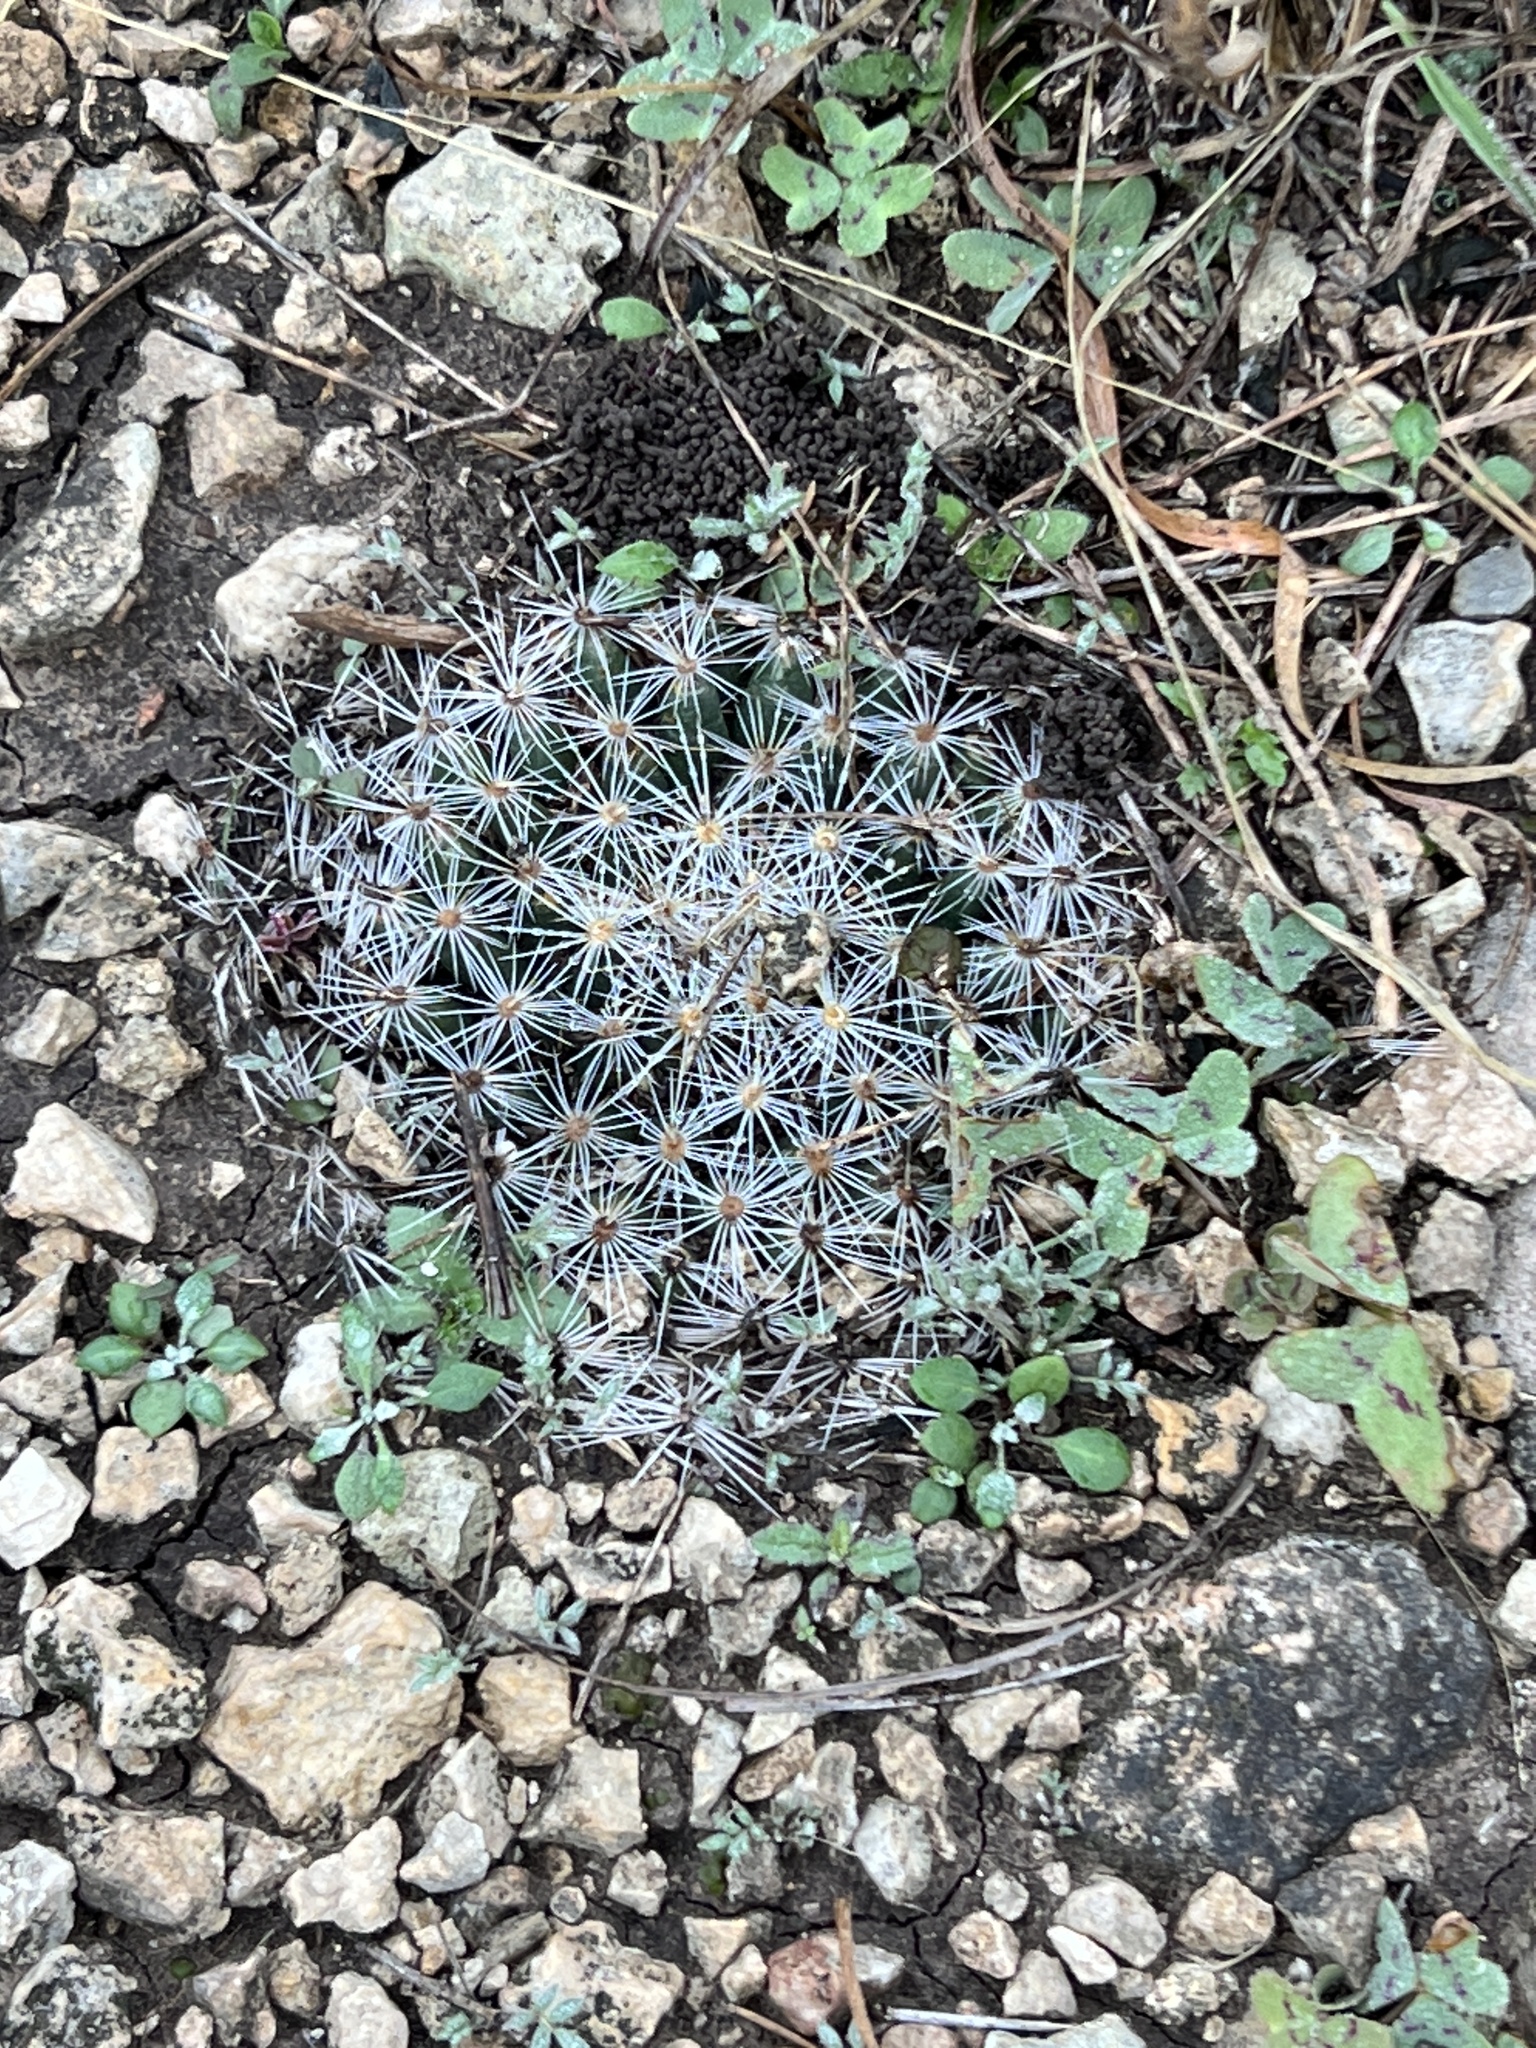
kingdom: Plantae
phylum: Tracheophyta
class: Magnoliopsida
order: Caryophyllales
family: Cactaceae
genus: Mammillaria
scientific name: Mammillaria heyderi
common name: Little nipple cactus
